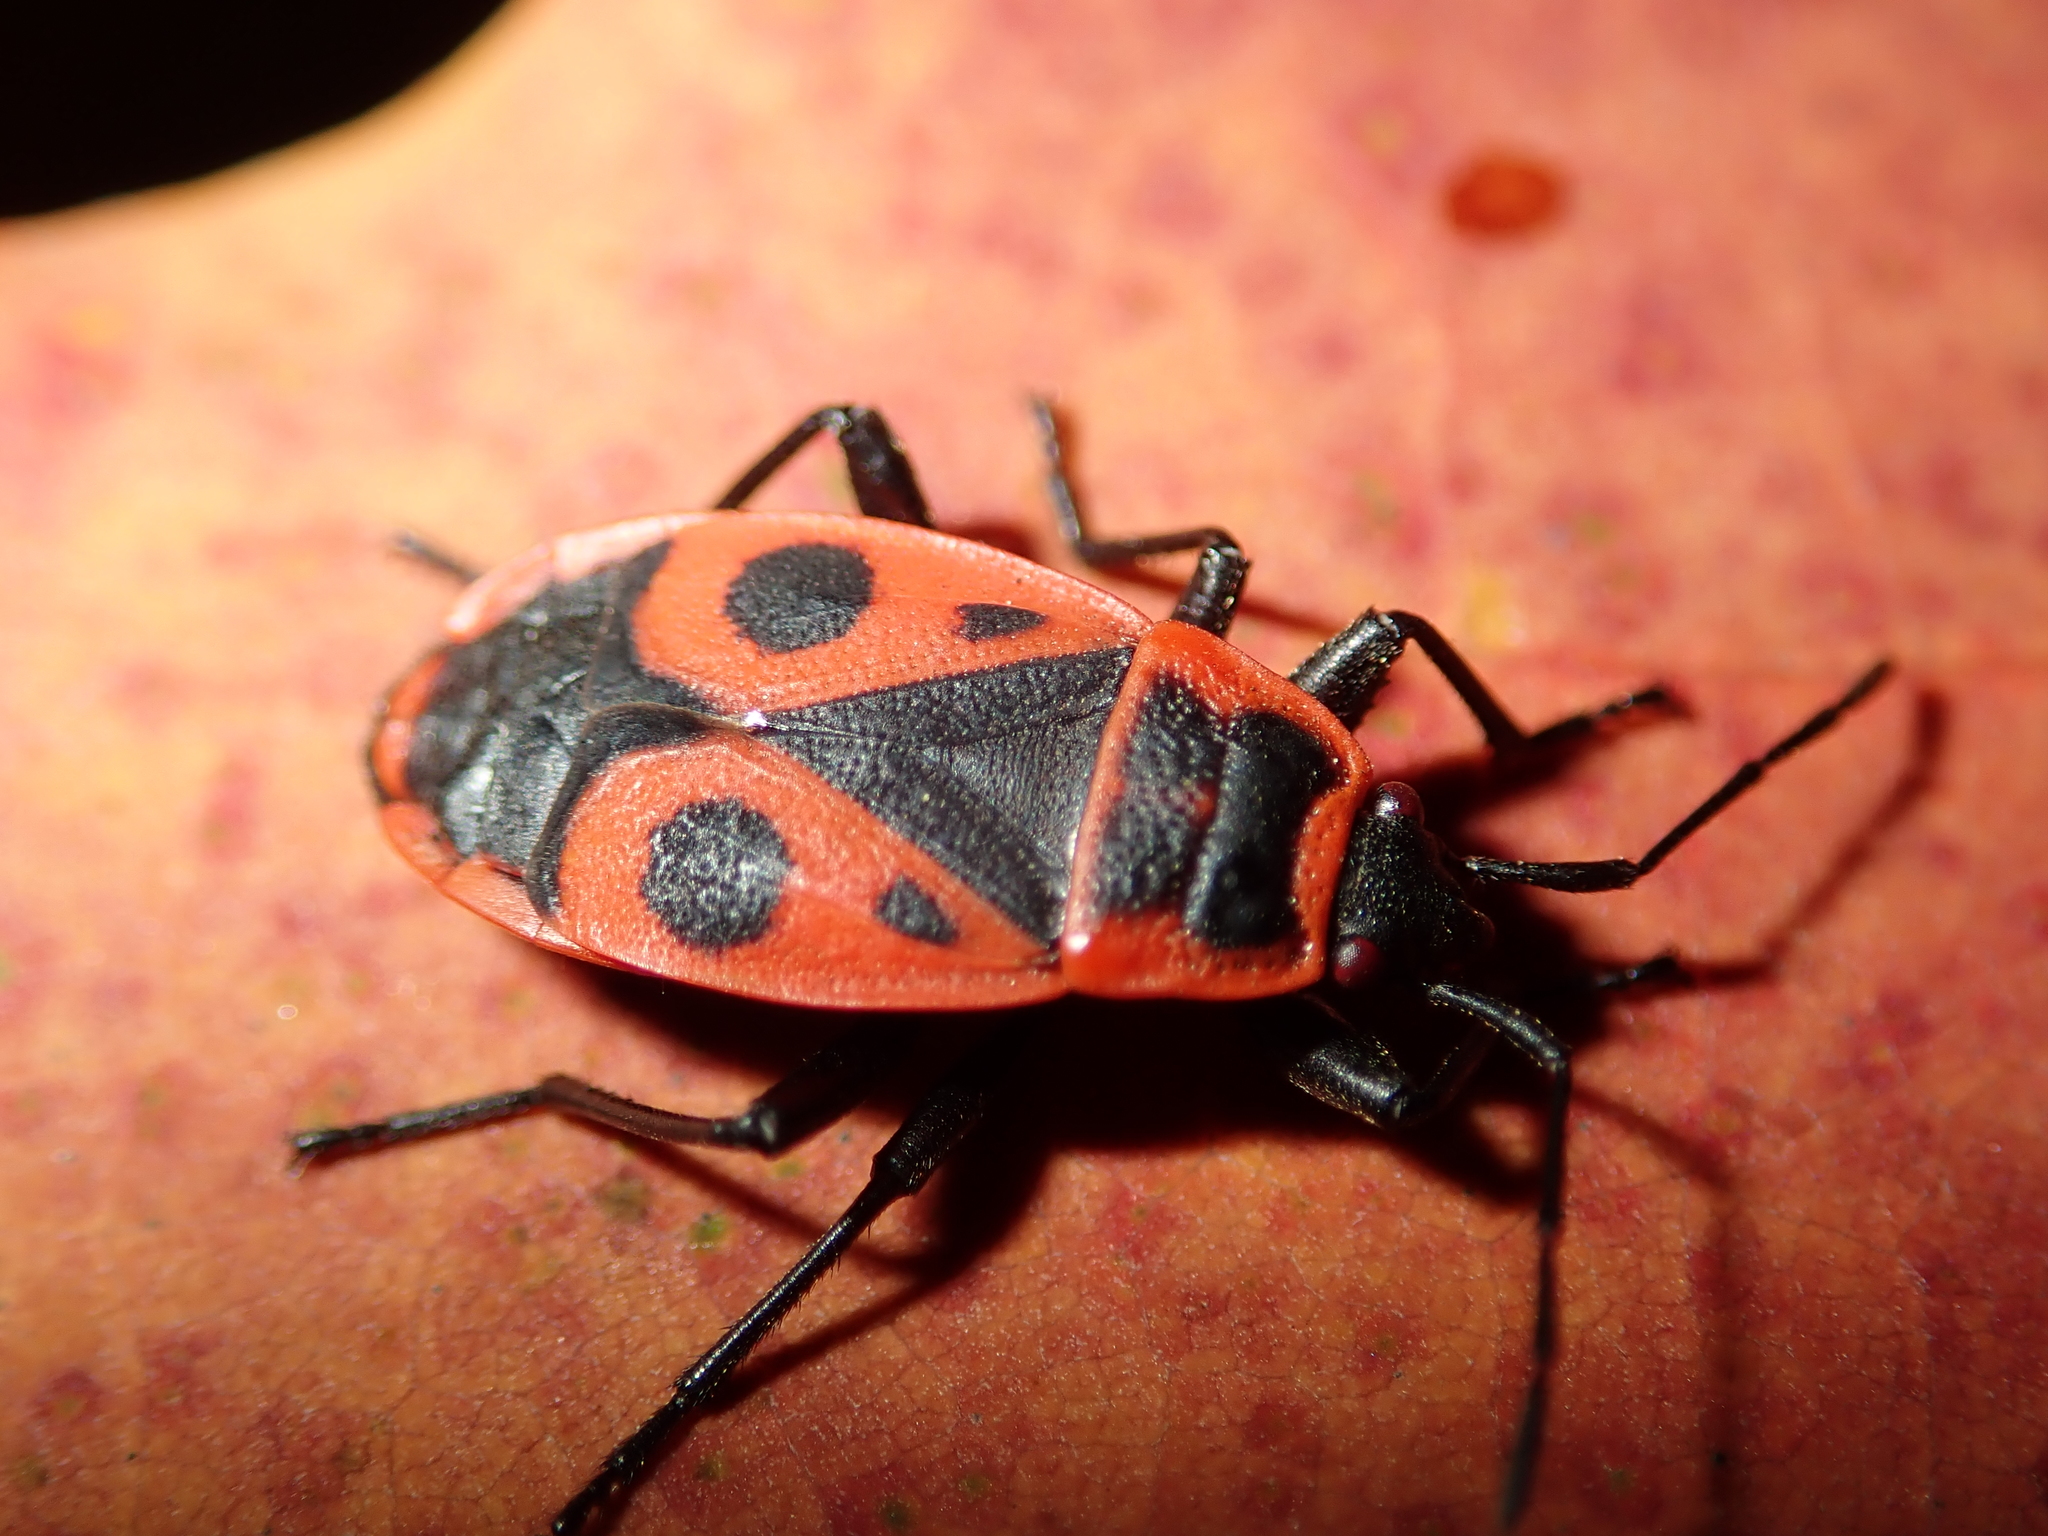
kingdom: Animalia
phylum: Arthropoda
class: Insecta
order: Hemiptera
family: Pyrrhocoridae
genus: Pyrrhocoris
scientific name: Pyrrhocoris apterus
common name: Firebug
